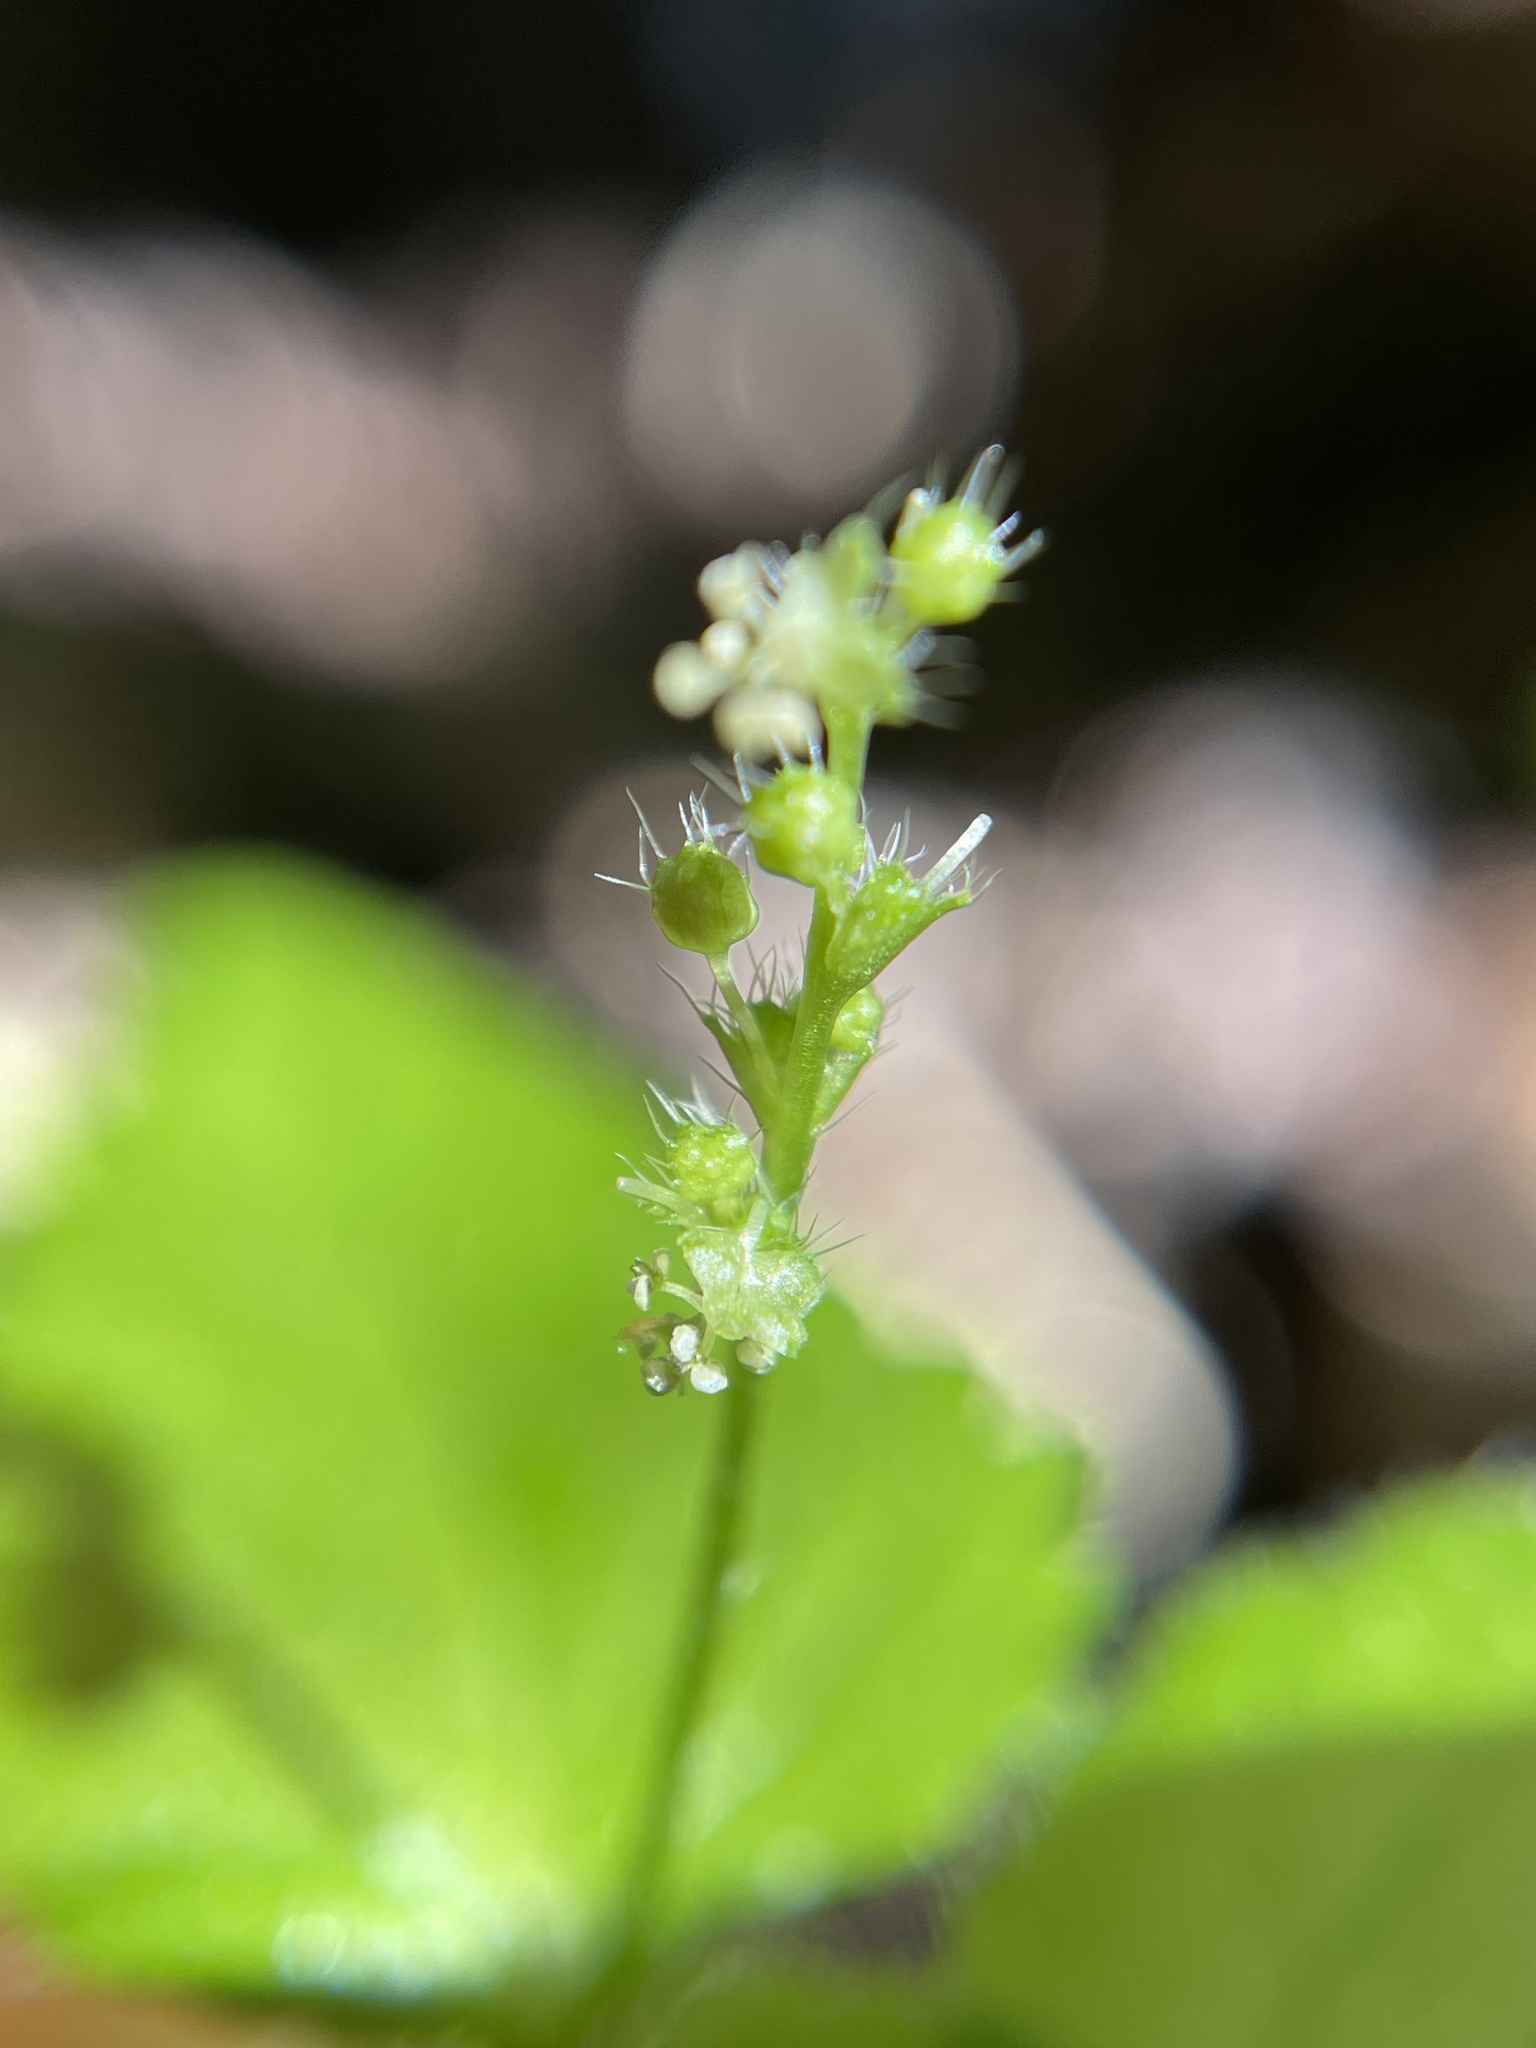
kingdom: Plantae
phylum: Tracheophyta
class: Magnoliopsida
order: Malpighiales
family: Euphorbiaceae
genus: Leidesia
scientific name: Leidesia procumbens
